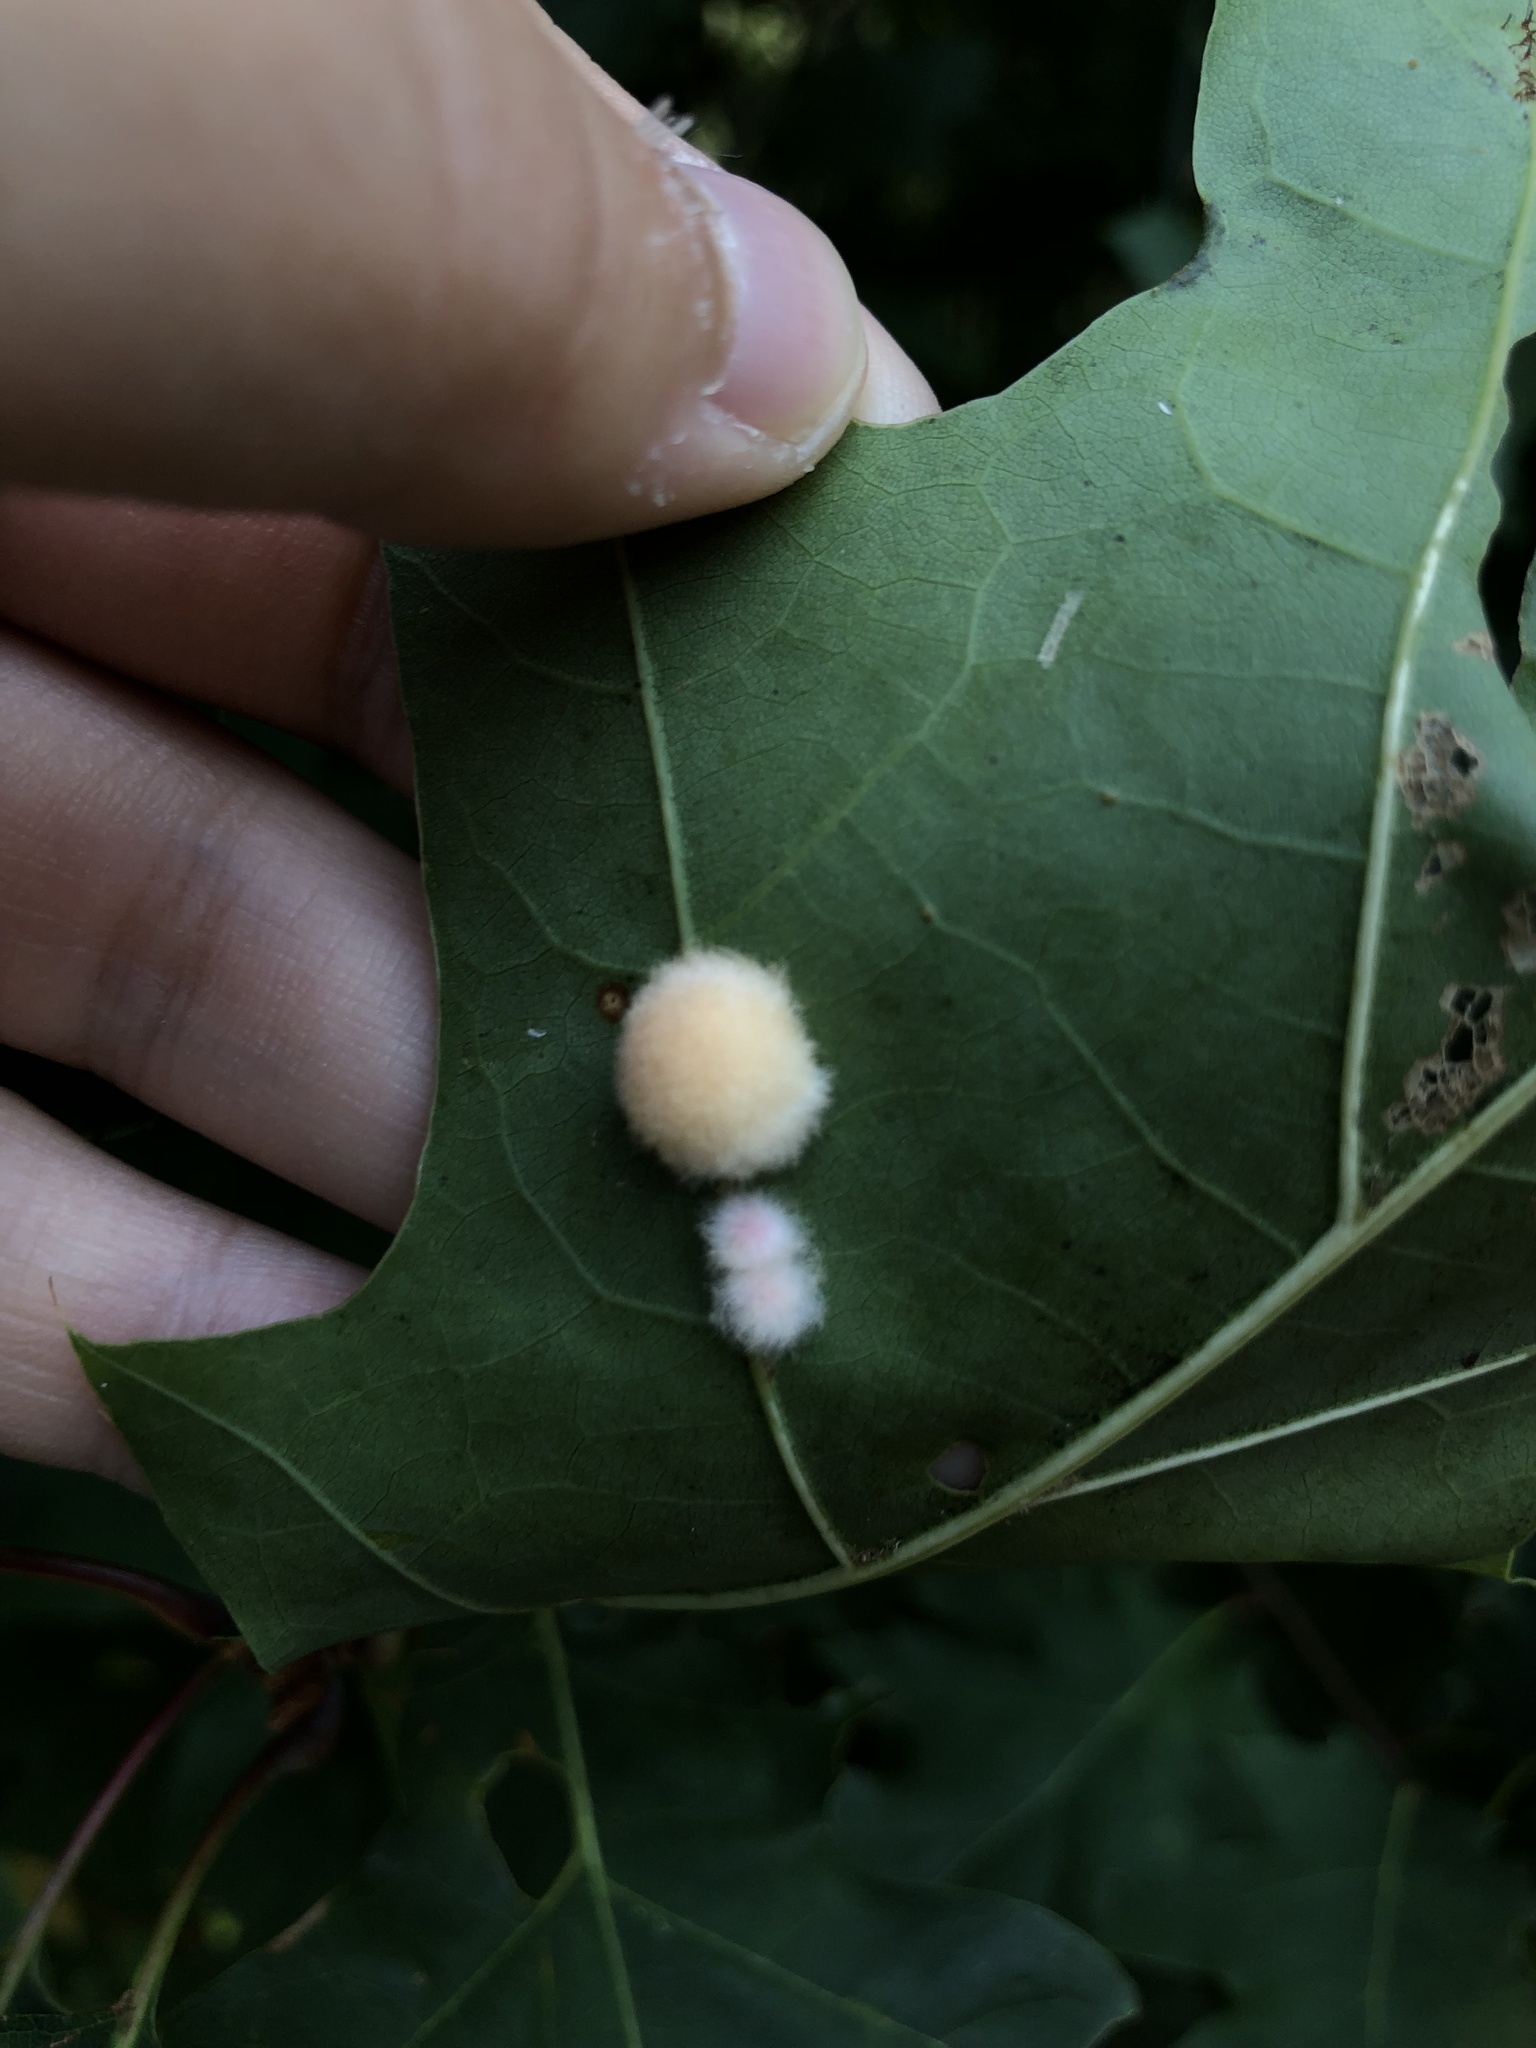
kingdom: Animalia
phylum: Arthropoda
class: Insecta
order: Hymenoptera
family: Cynipidae
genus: Callirhytis
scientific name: Callirhytis
